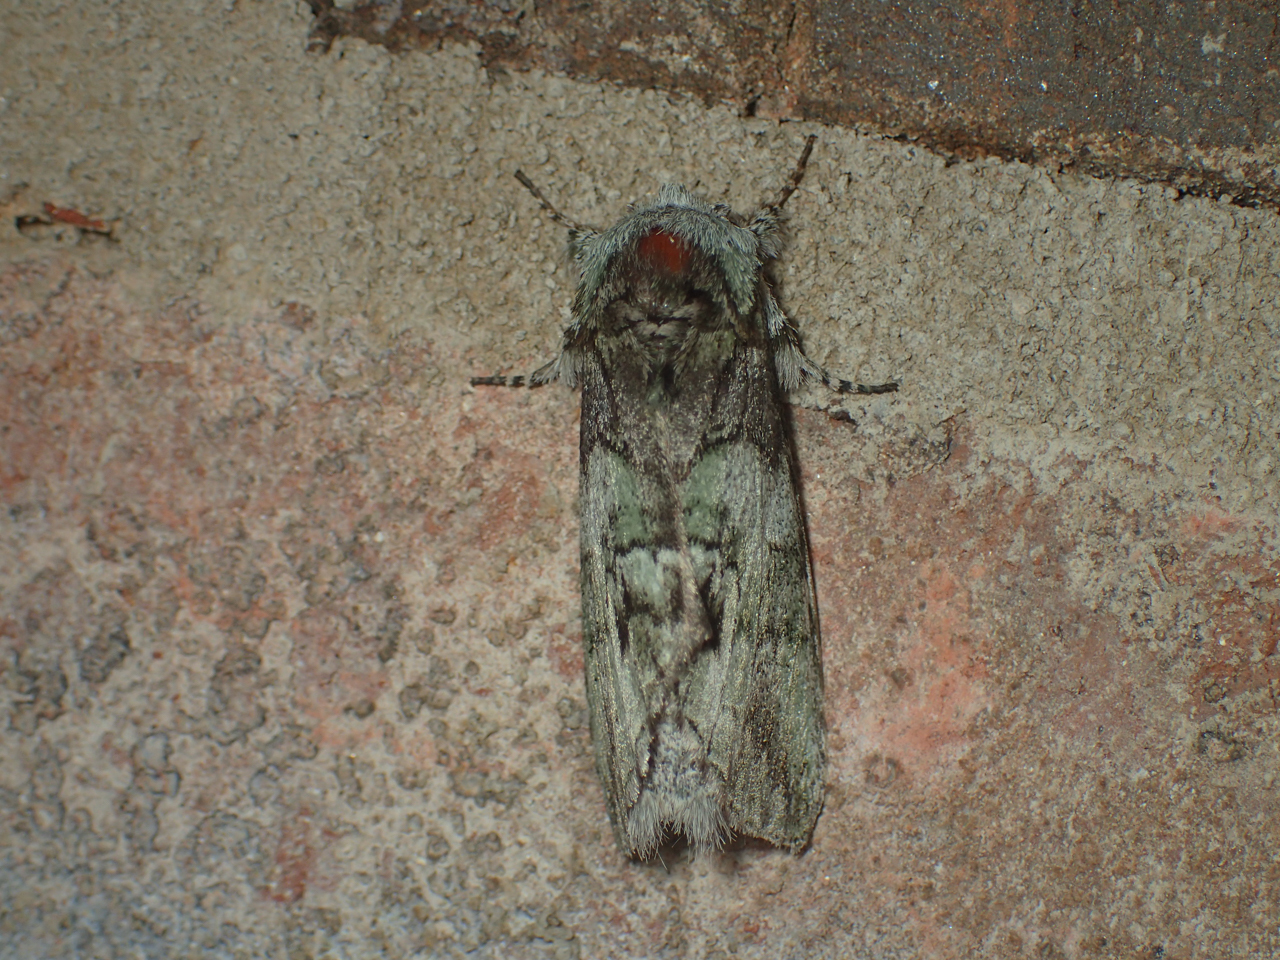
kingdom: Animalia
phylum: Arthropoda
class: Insecta
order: Lepidoptera
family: Notodontidae
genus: Macrurocampa
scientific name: Macrurocampa marthesia
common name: Mottled prominent
